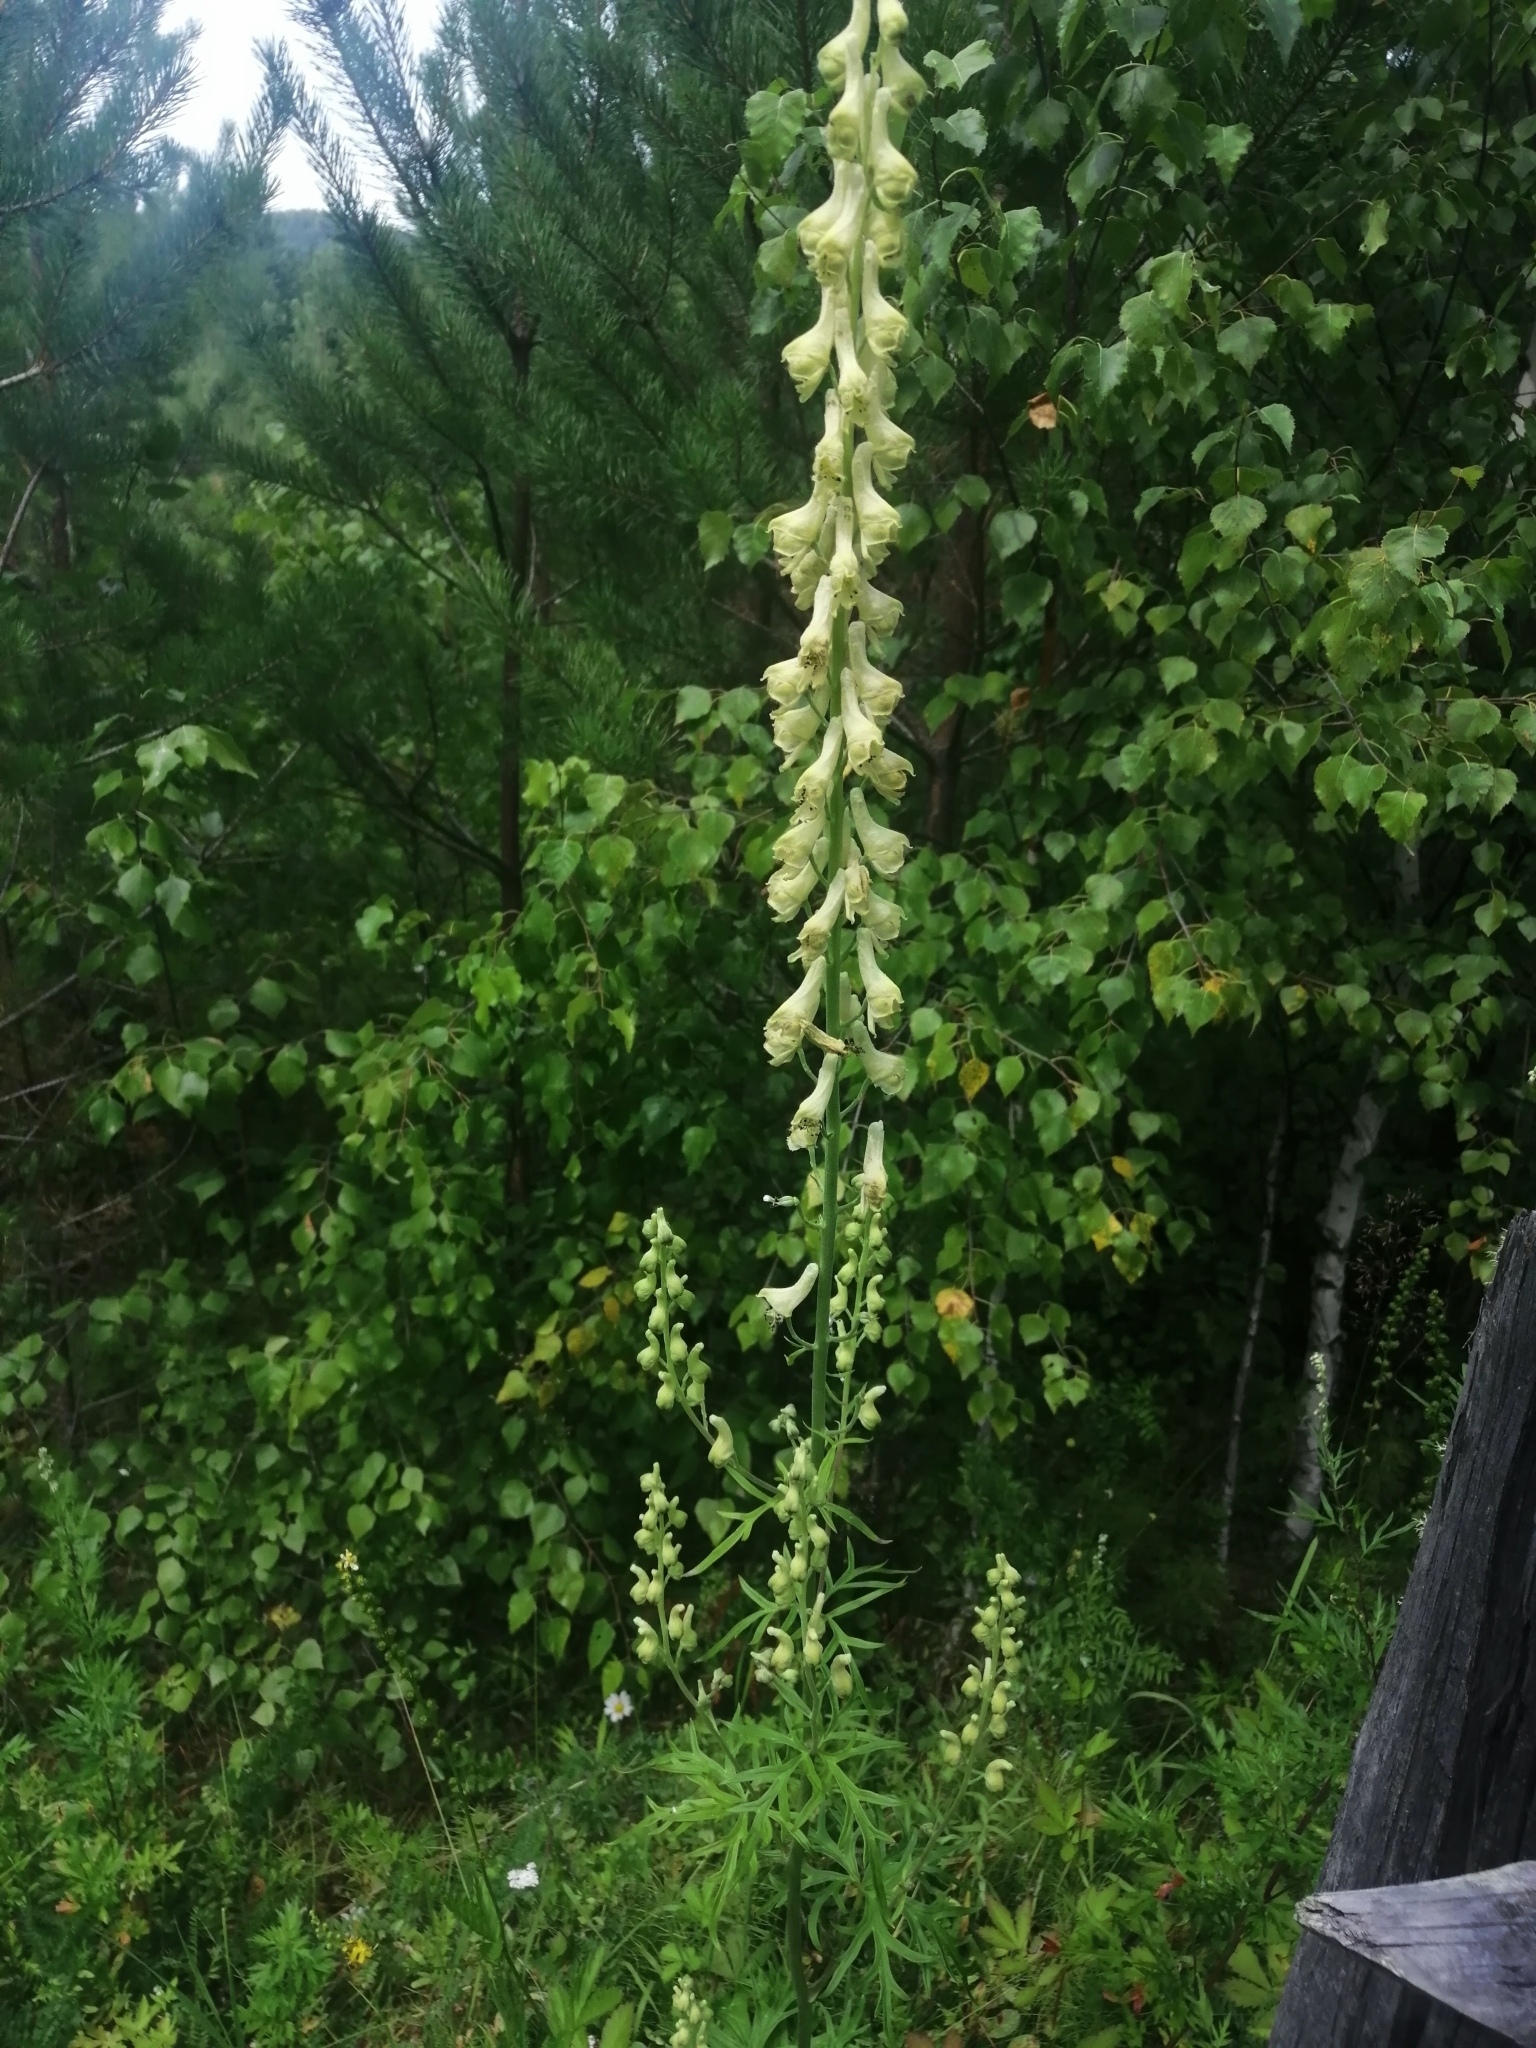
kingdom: Plantae
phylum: Tracheophyta
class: Magnoliopsida
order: Ranunculales
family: Ranunculaceae
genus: Aconitum
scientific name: Aconitum barbatum
